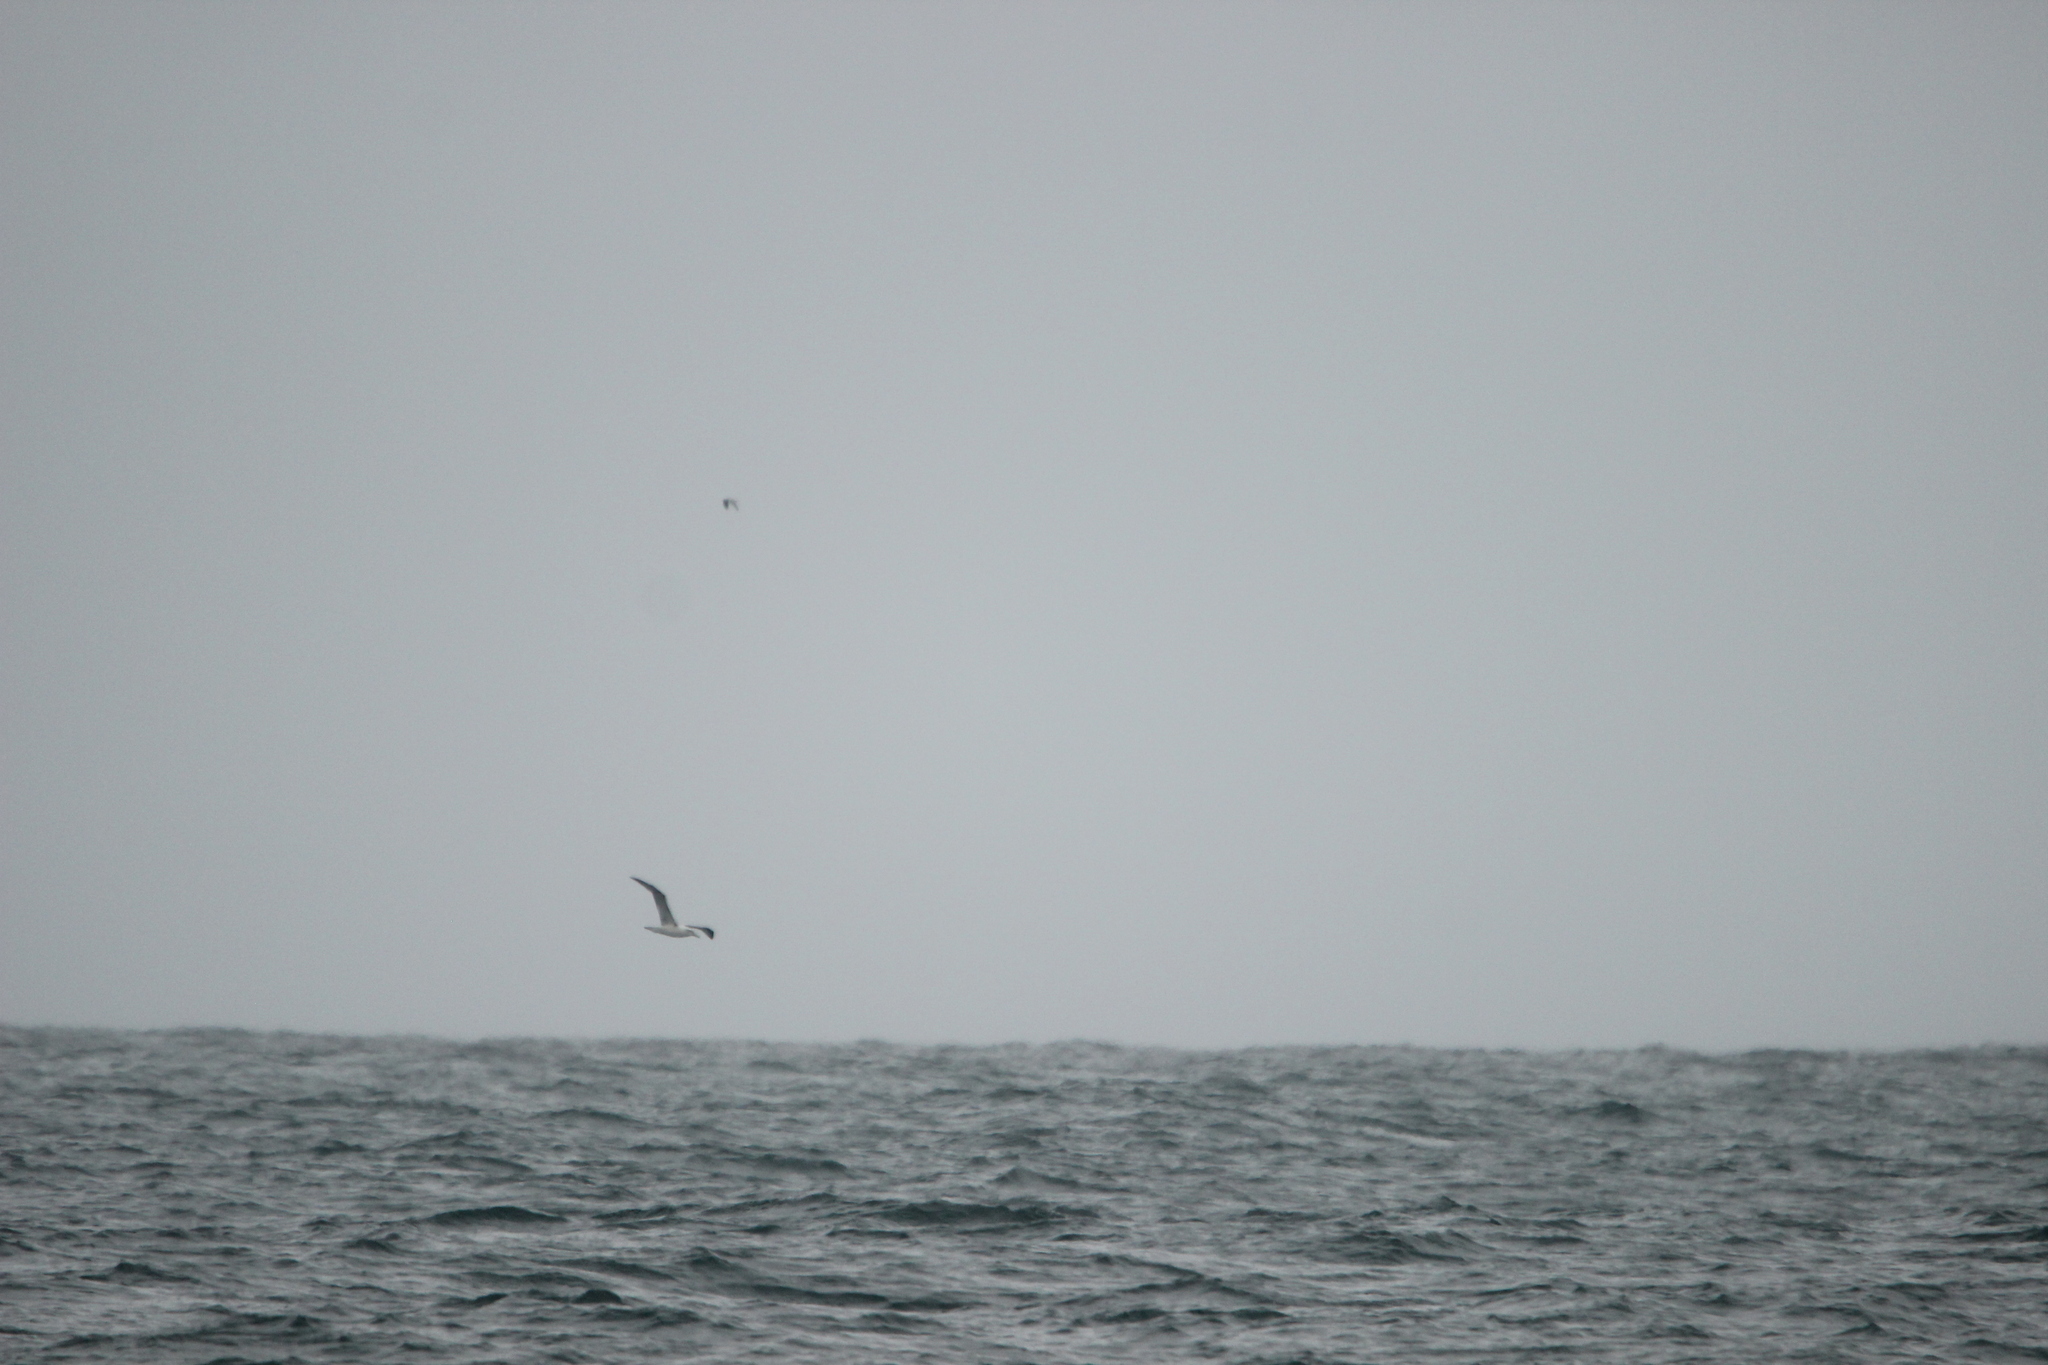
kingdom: Animalia
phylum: Chordata
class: Aves
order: Procellariiformes
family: Diomedeidae
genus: Thalassarche
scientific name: Thalassarche cauta
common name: Shy albatross
